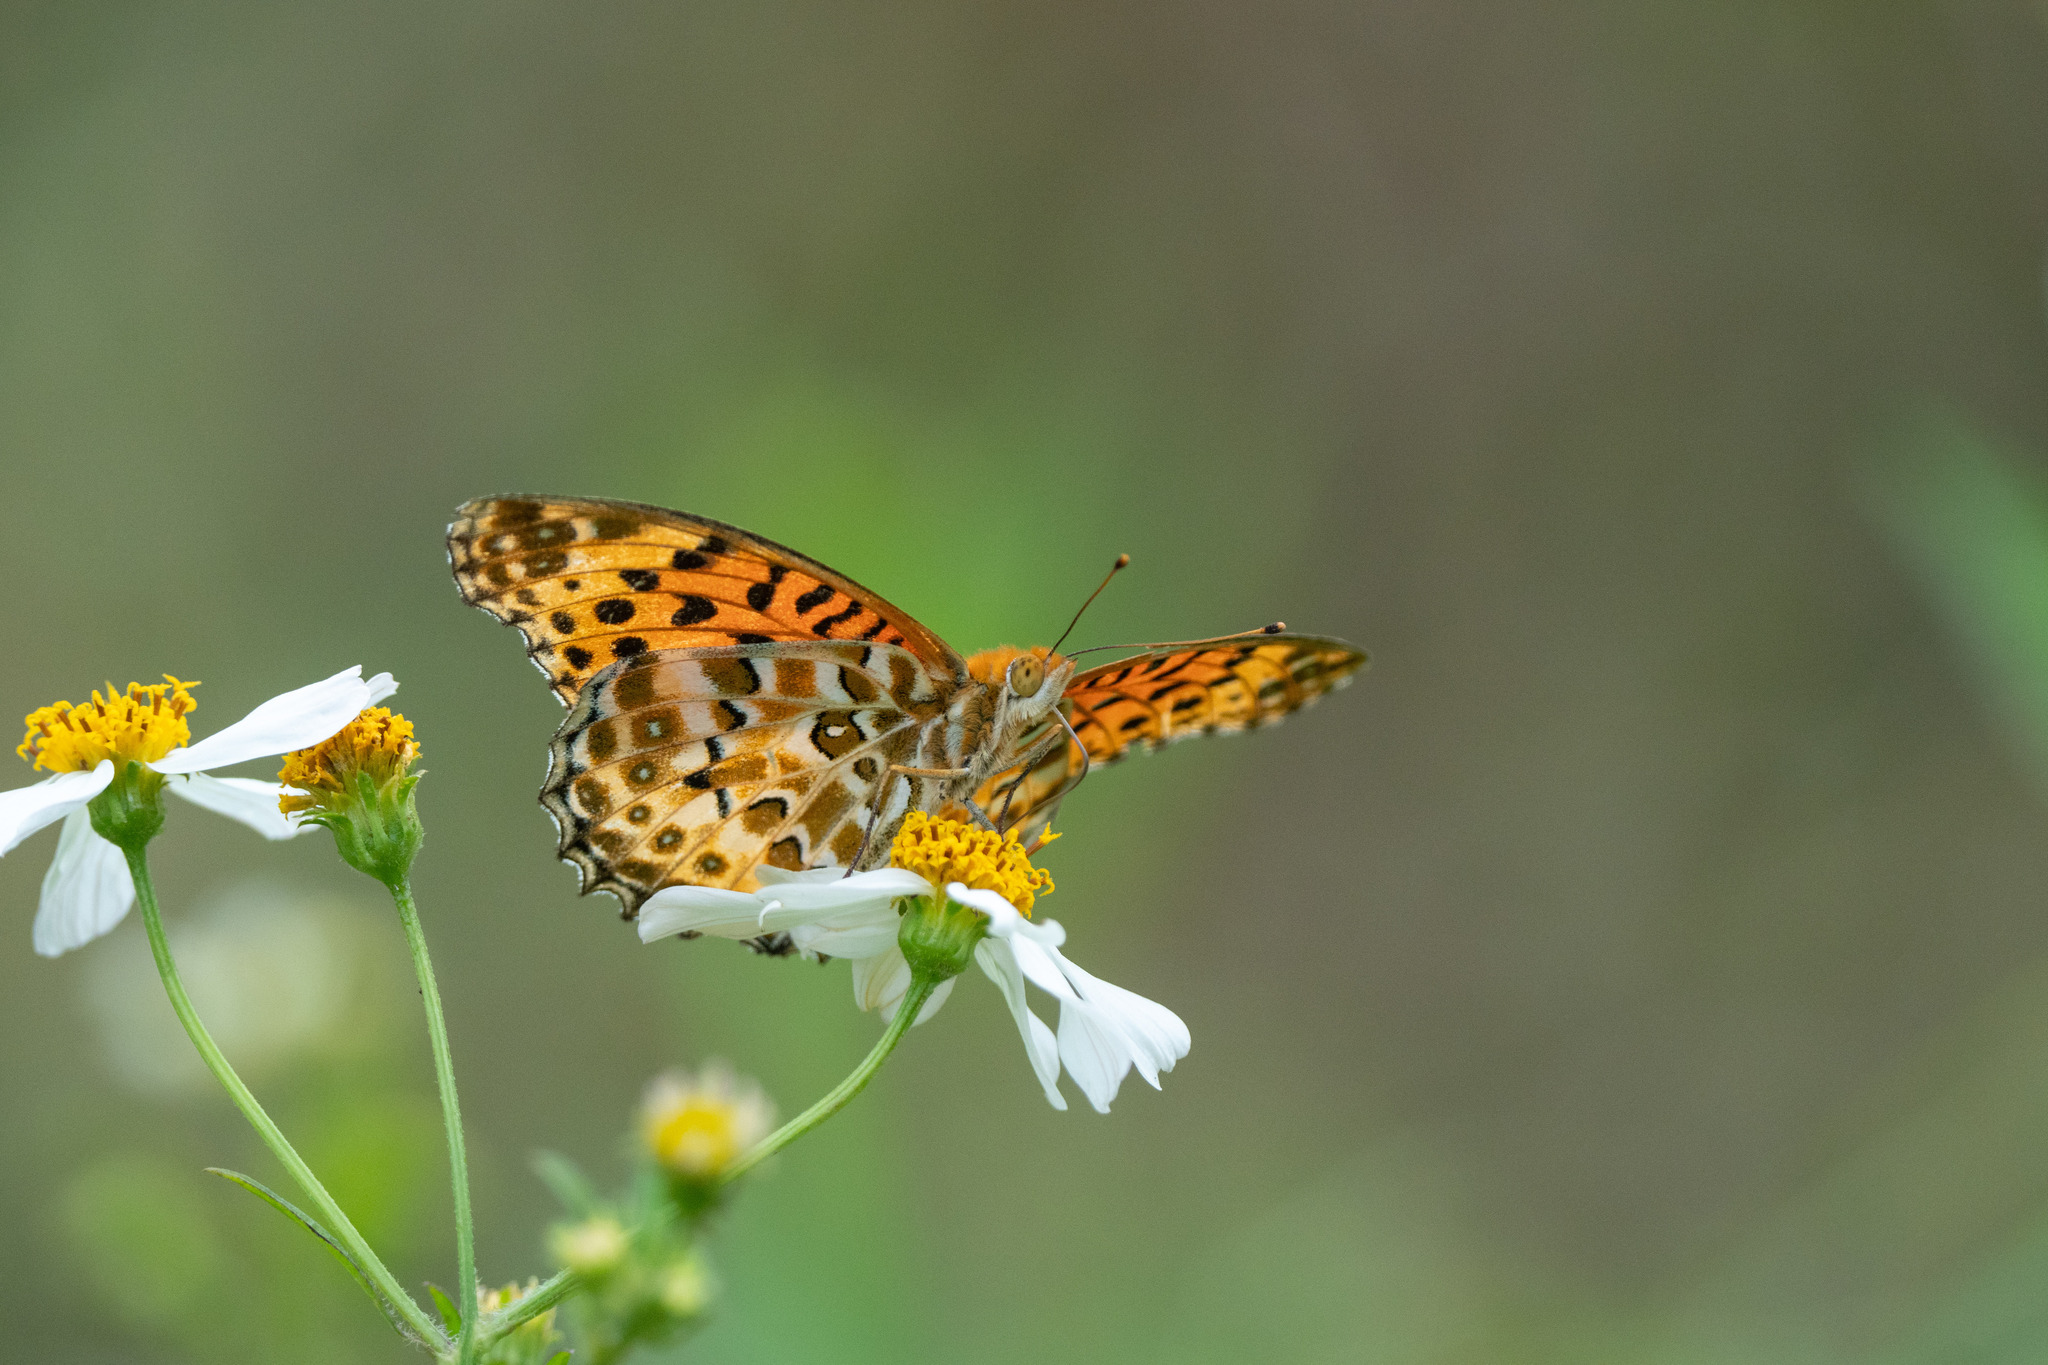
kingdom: Animalia
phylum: Arthropoda
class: Insecta
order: Lepidoptera
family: Nymphalidae
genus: Argynnis
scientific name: Argynnis hyperbius
